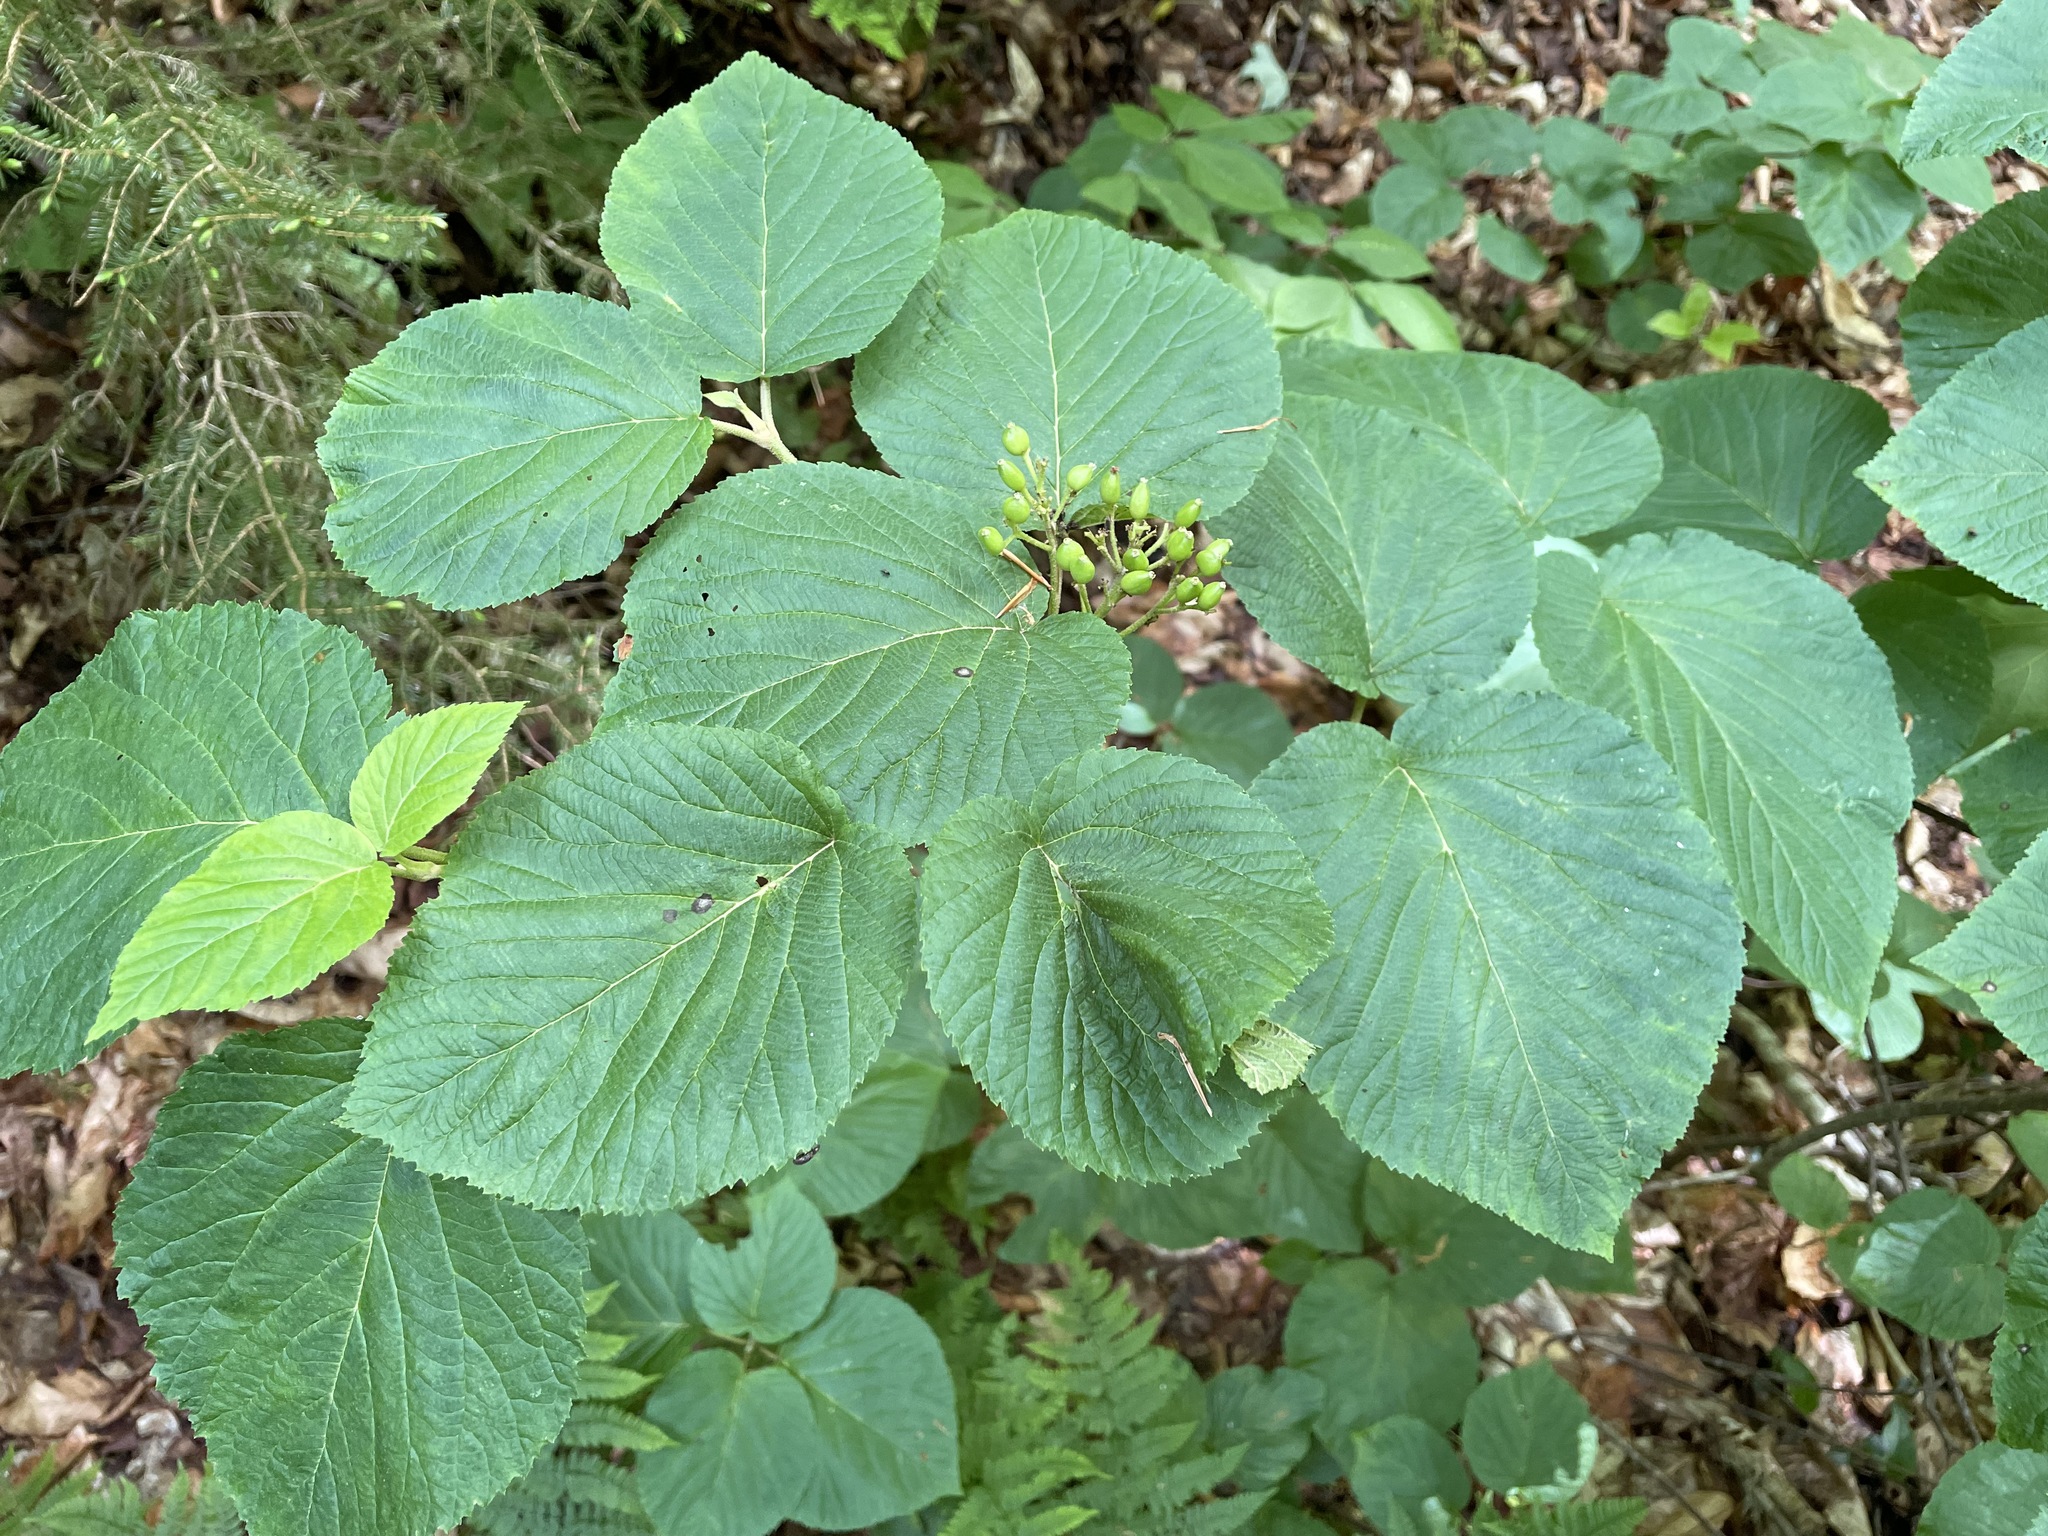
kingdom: Plantae
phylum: Tracheophyta
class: Magnoliopsida
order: Dipsacales
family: Viburnaceae
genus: Viburnum
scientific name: Viburnum lantanoides
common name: Hobblebush
